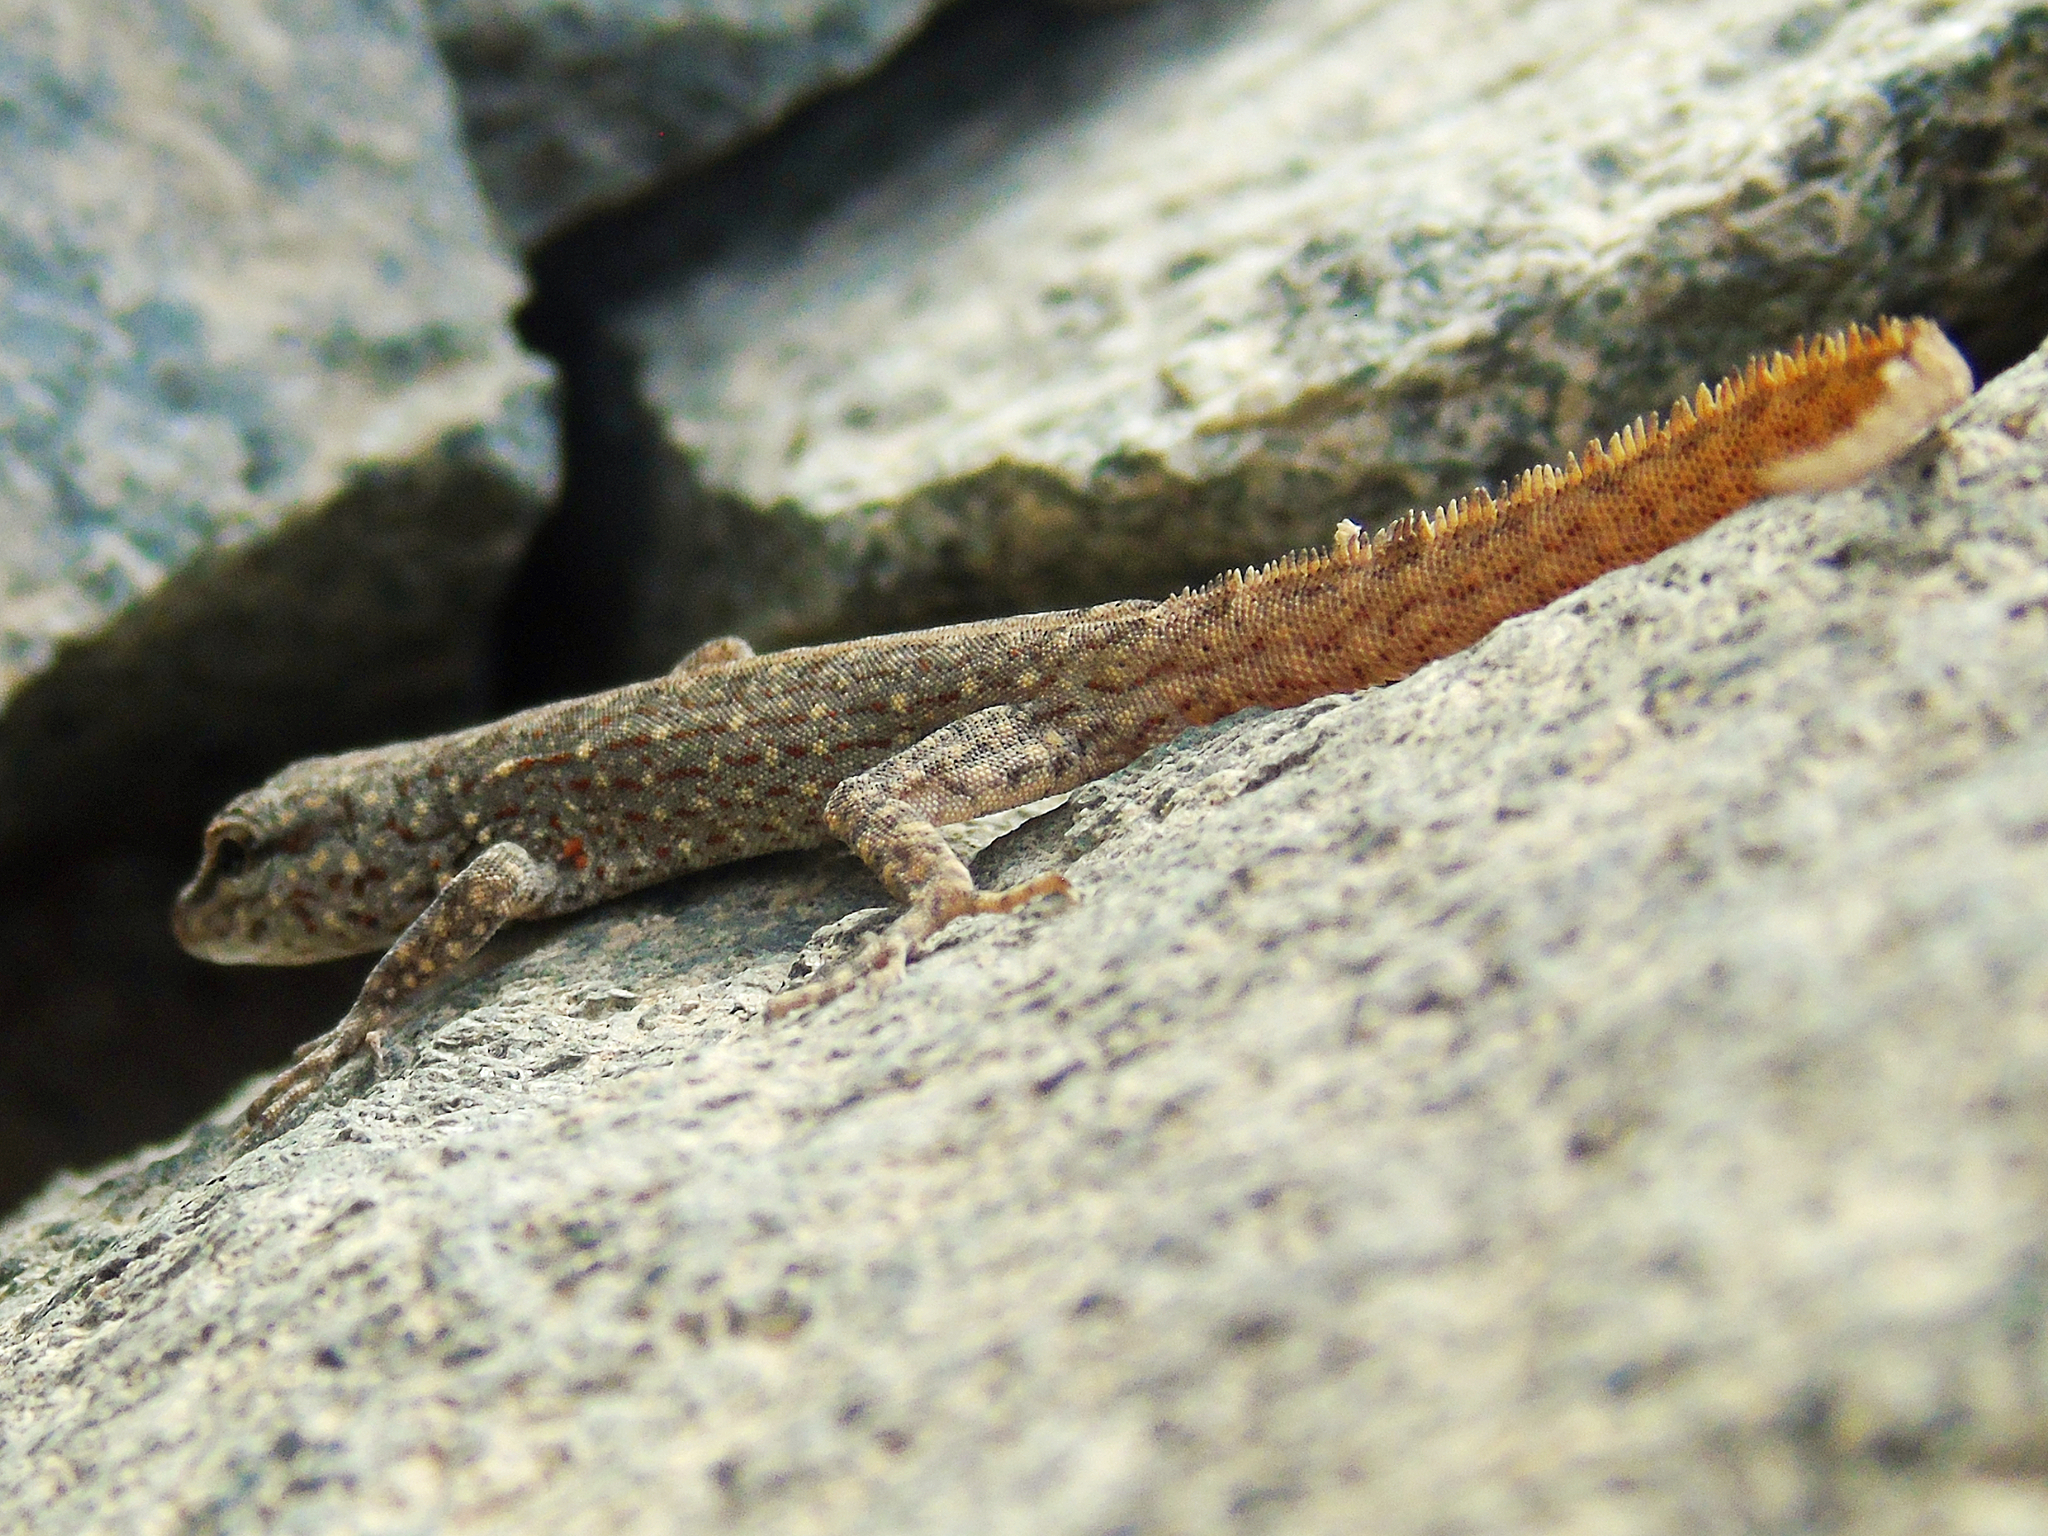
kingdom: Animalia
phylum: Chordata
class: Squamata
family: Sphaerodactylidae
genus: Pristurus
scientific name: Pristurus rupestris
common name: Blanford’s semaphore gecko
